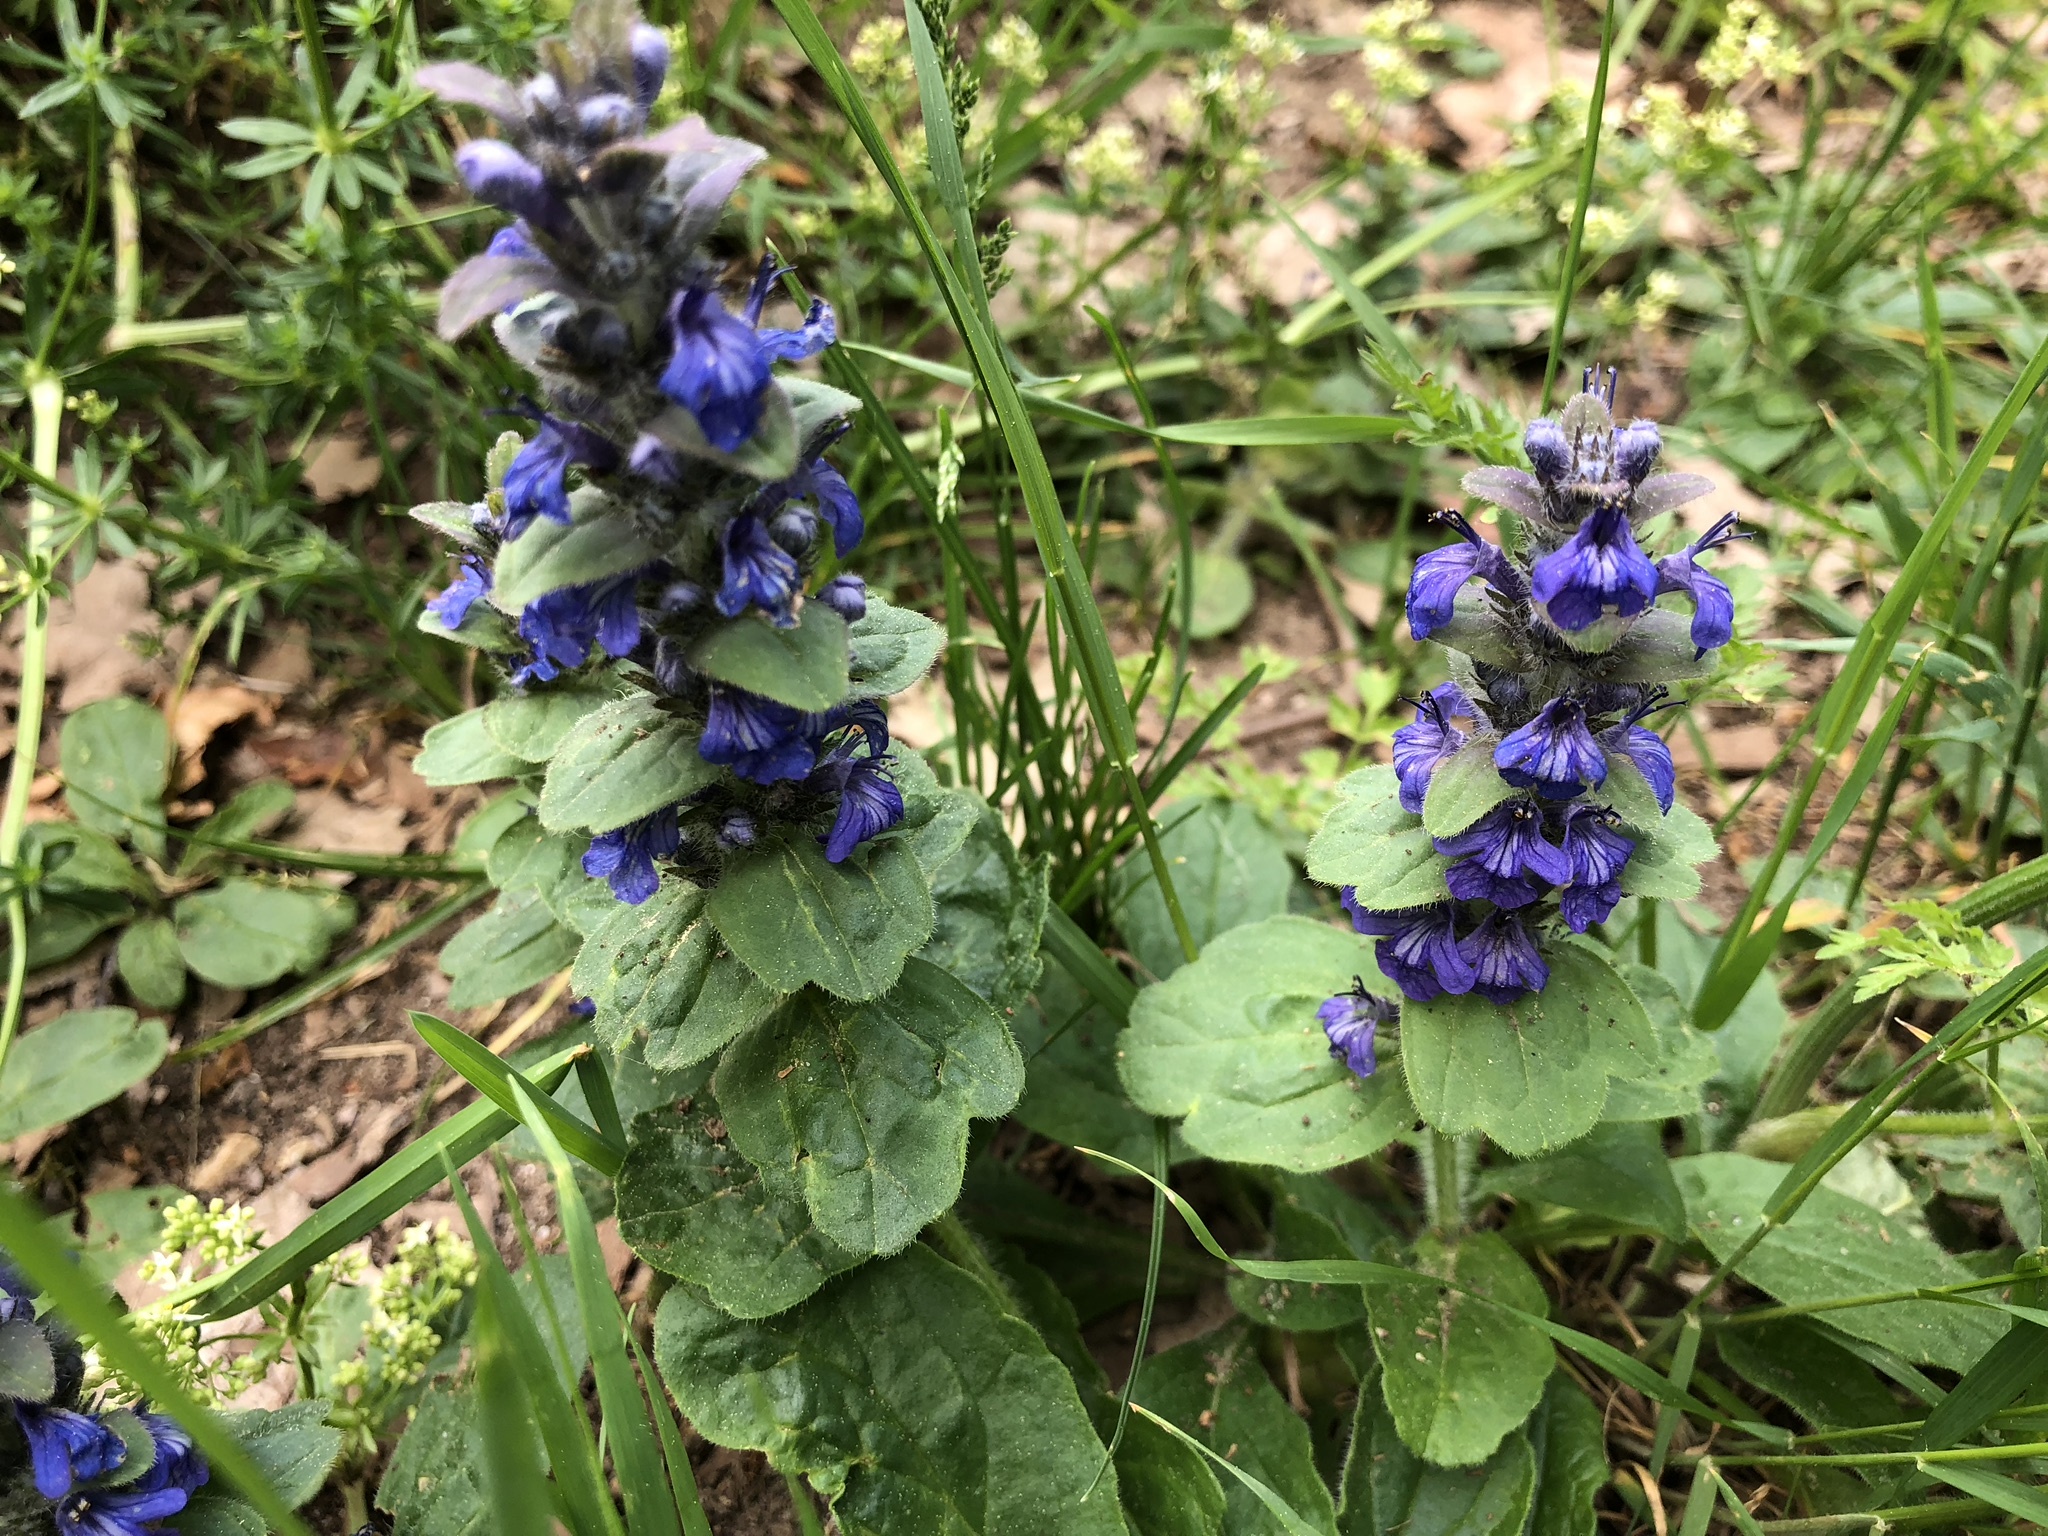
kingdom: Plantae
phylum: Tracheophyta
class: Magnoliopsida
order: Lamiales
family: Lamiaceae
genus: Ajuga
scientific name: Ajuga genevensis
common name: Blue bugle
